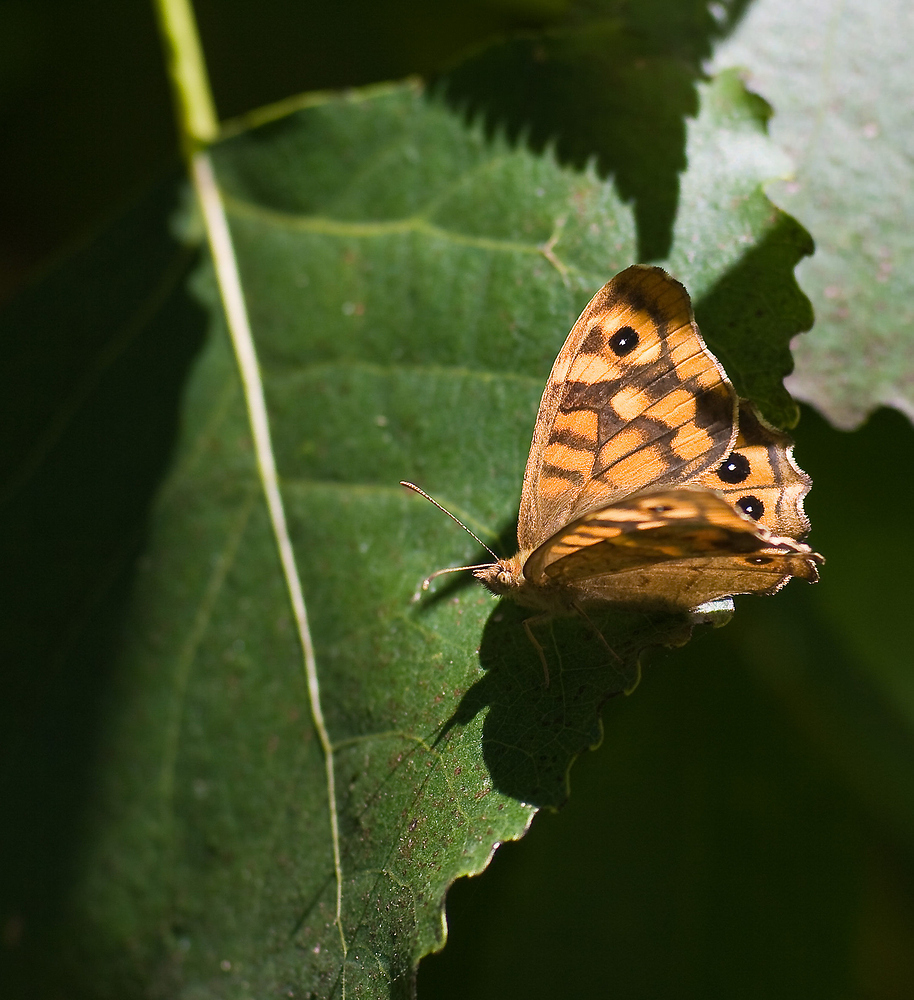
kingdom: Animalia
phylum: Arthropoda
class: Insecta
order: Lepidoptera
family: Nymphalidae
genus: Pararge
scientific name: Pararge aegeria
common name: Speckled wood
